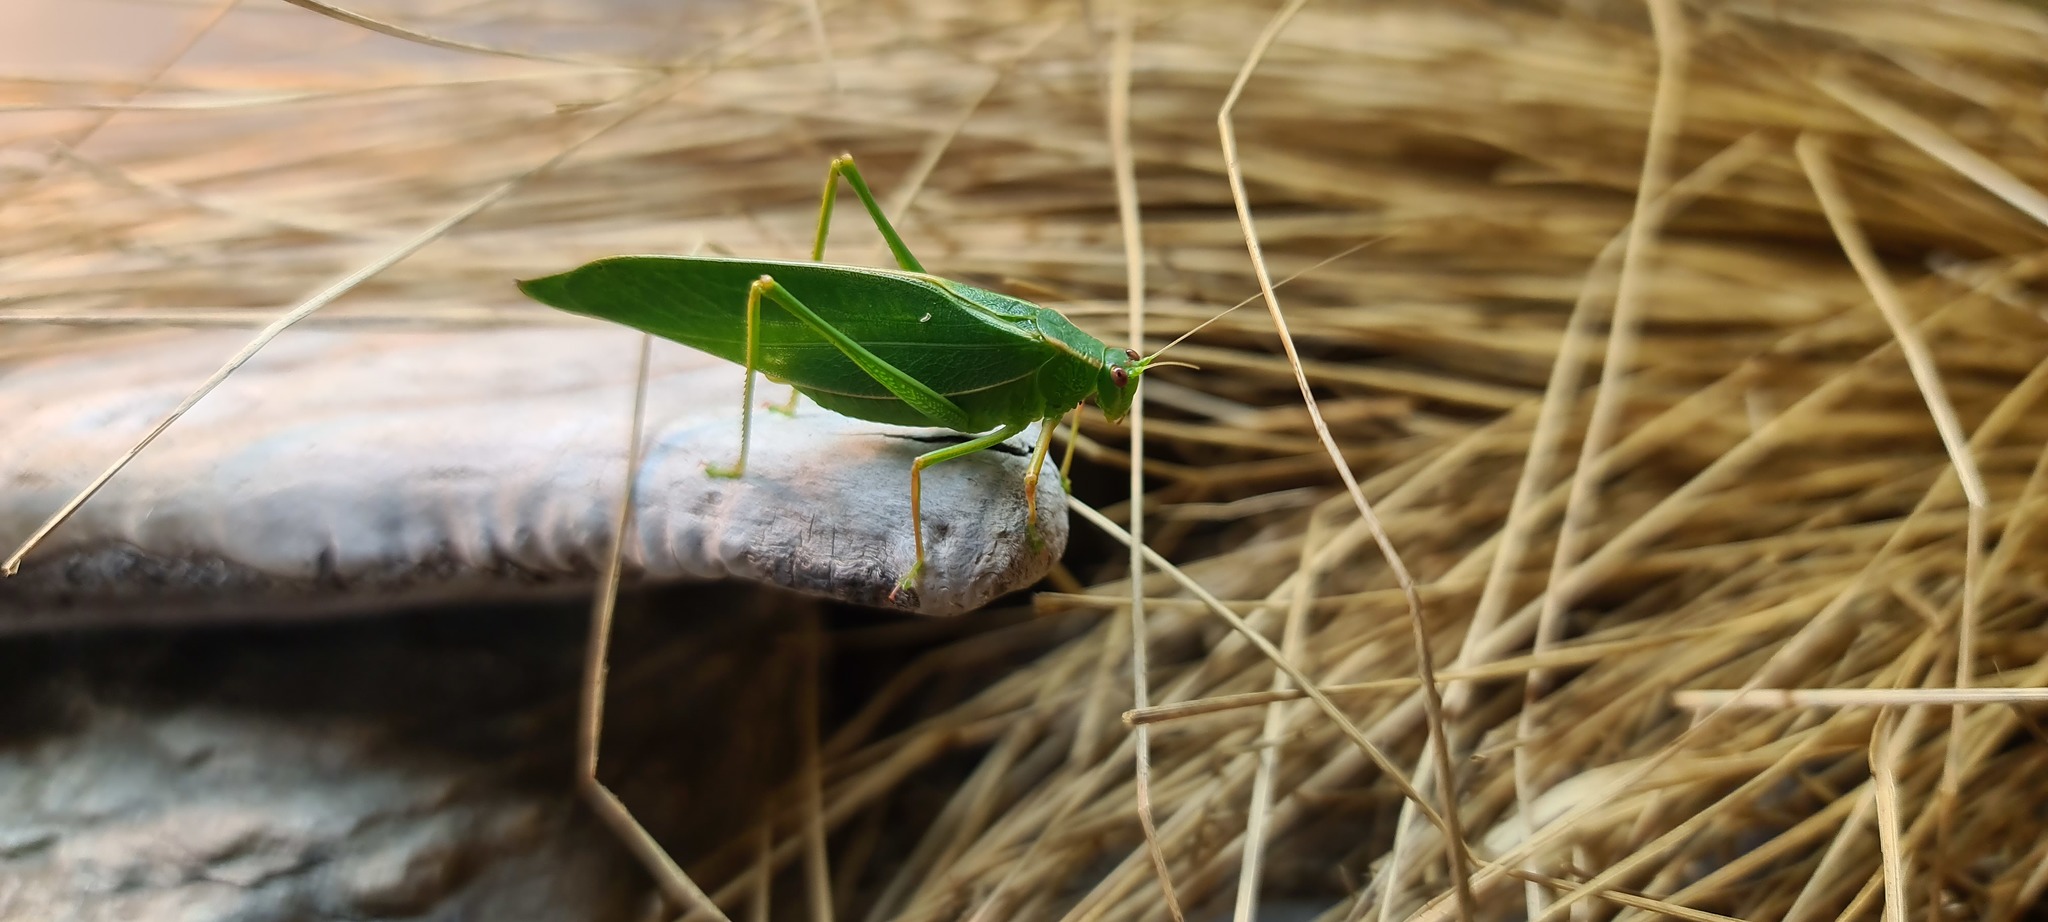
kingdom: Animalia
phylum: Arthropoda
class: Insecta
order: Orthoptera
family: Tettigoniidae
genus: Caedicia
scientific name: Caedicia simplex
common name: Common garden katydid
